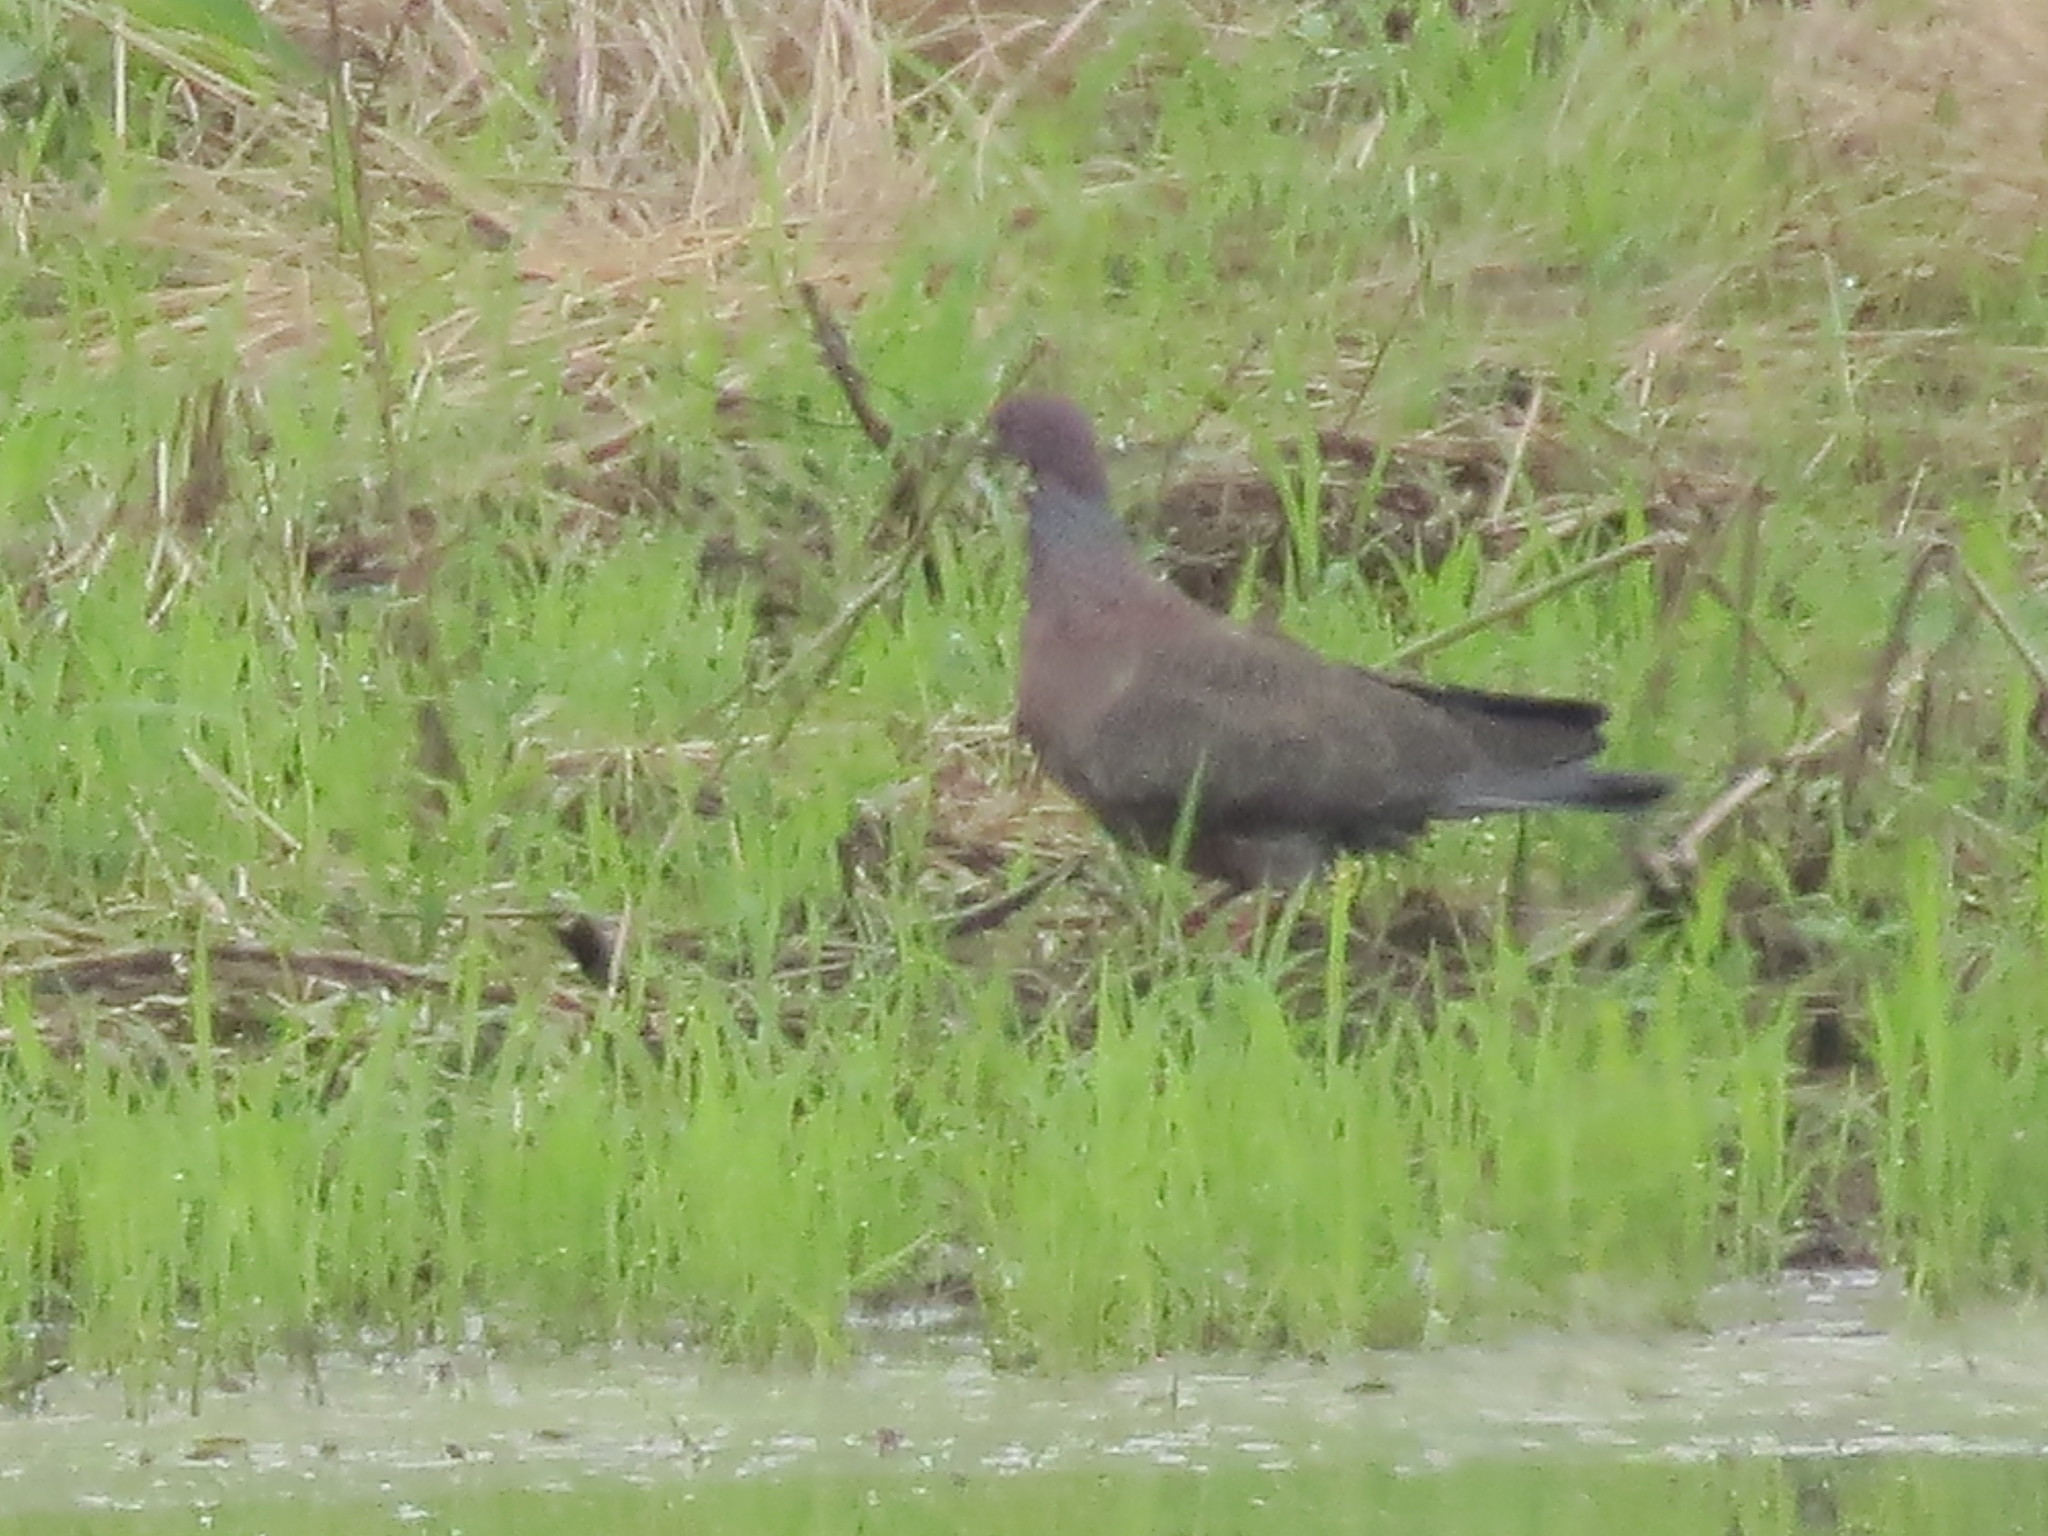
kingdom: Animalia
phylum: Chordata
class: Aves
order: Columbiformes
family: Columbidae
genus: Patagioenas
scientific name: Patagioenas picazuro
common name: Picazuro pigeon
